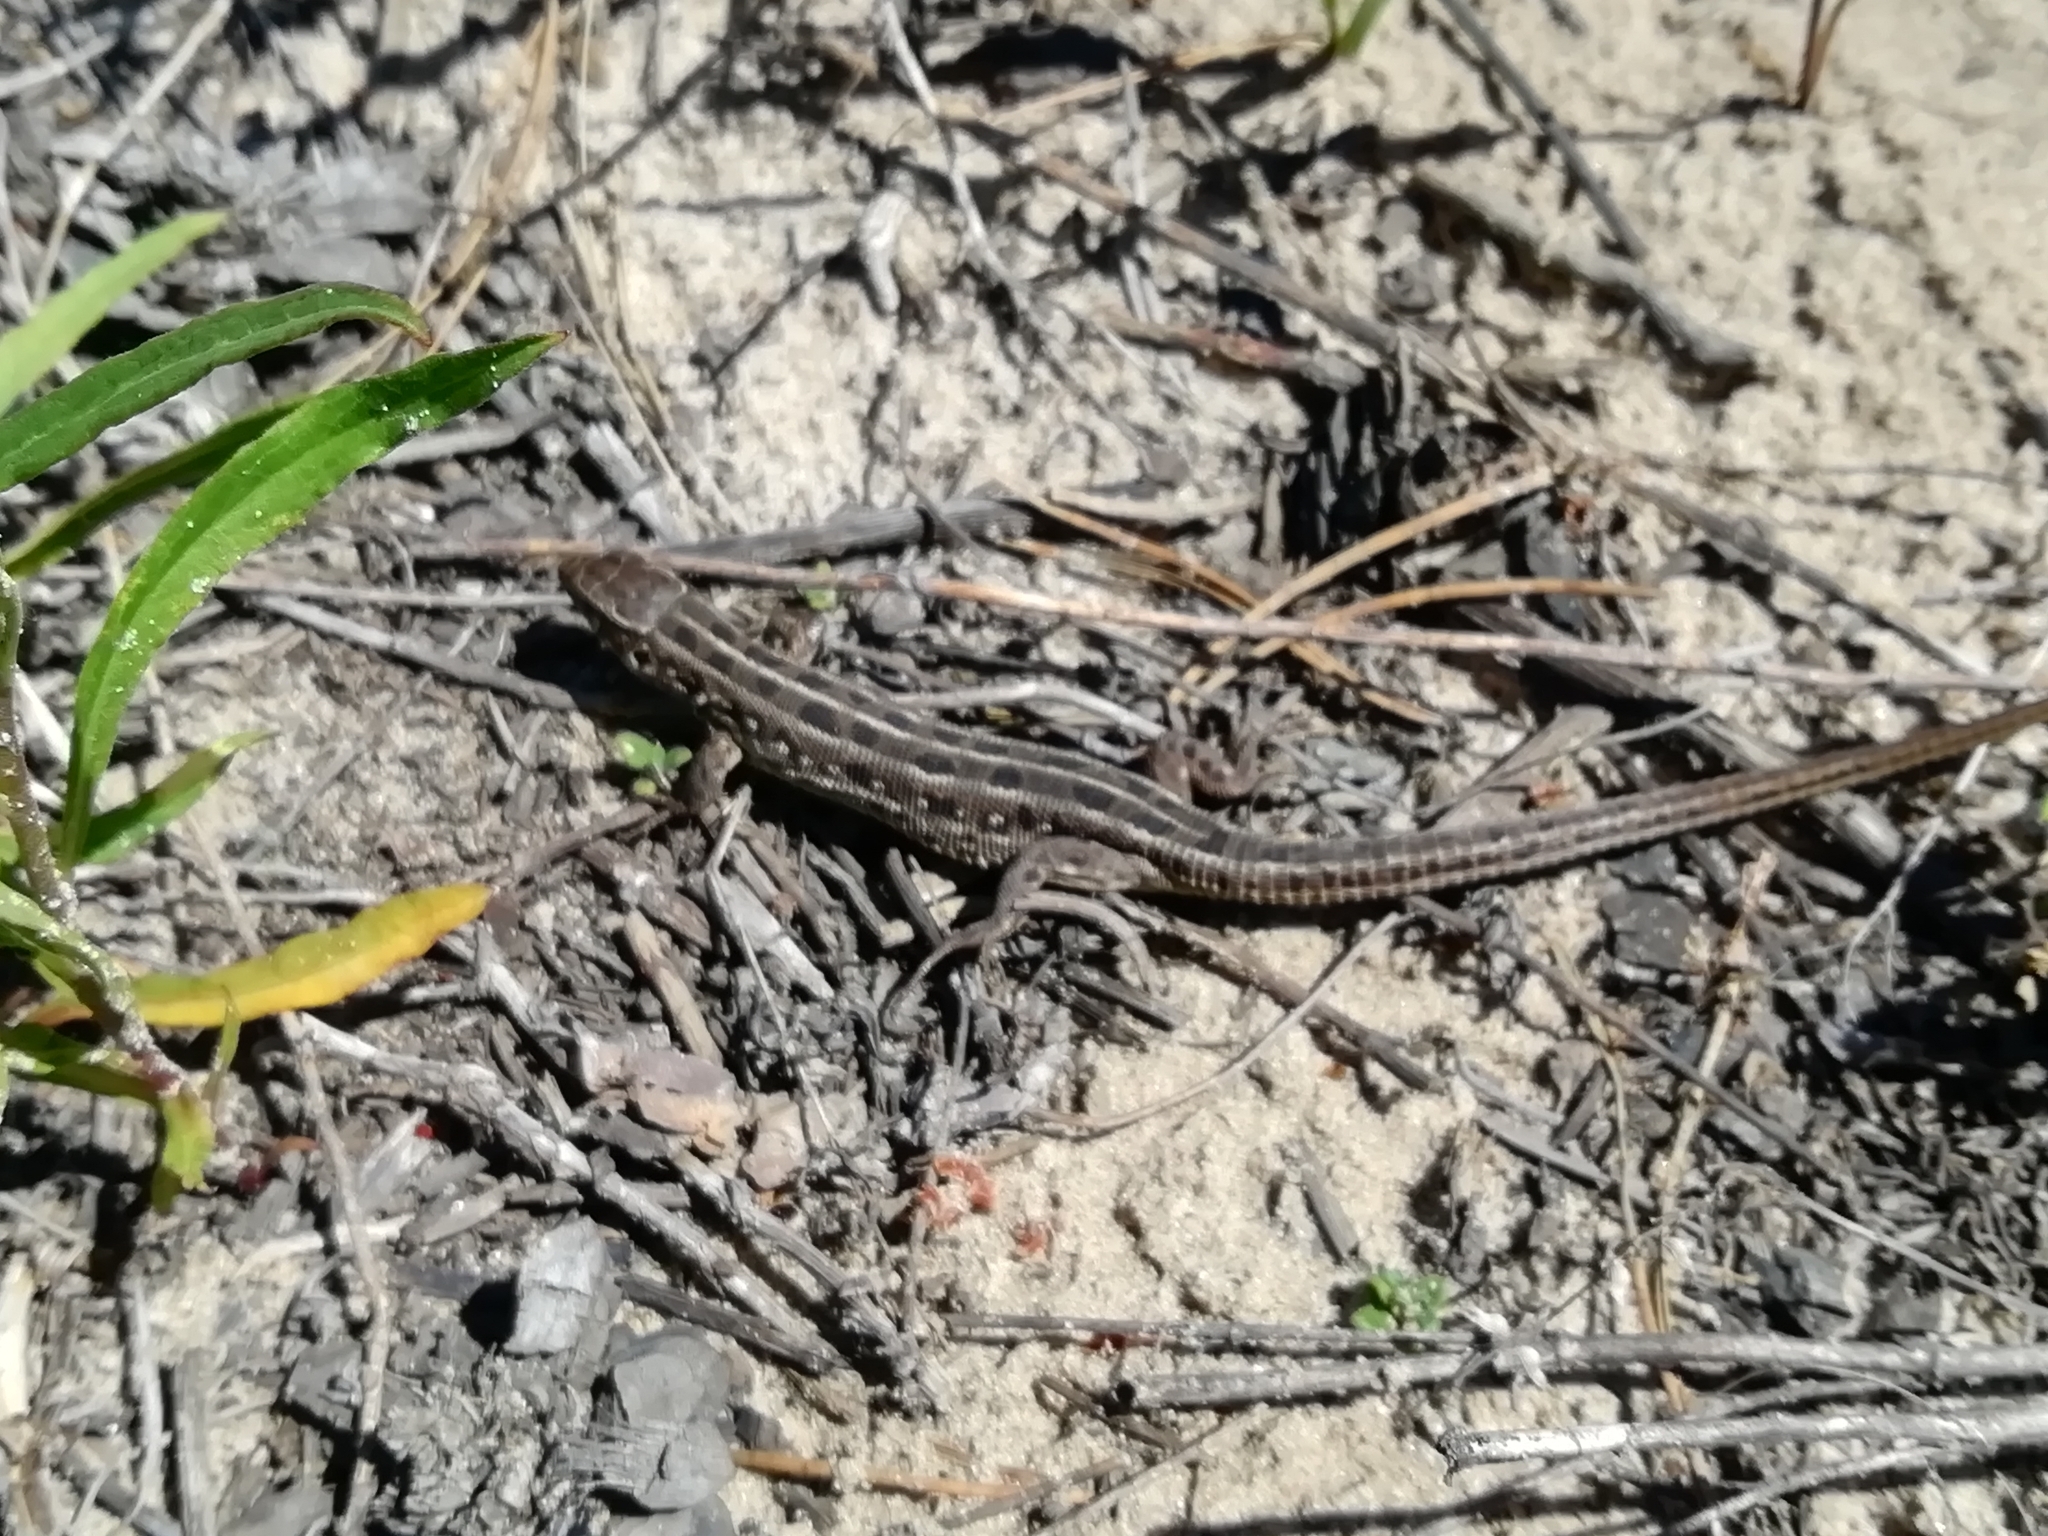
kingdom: Animalia
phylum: Chordata
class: Squamata
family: Lacertidae
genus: Lacerta
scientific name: Lacerta agilis
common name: Sand lizard
